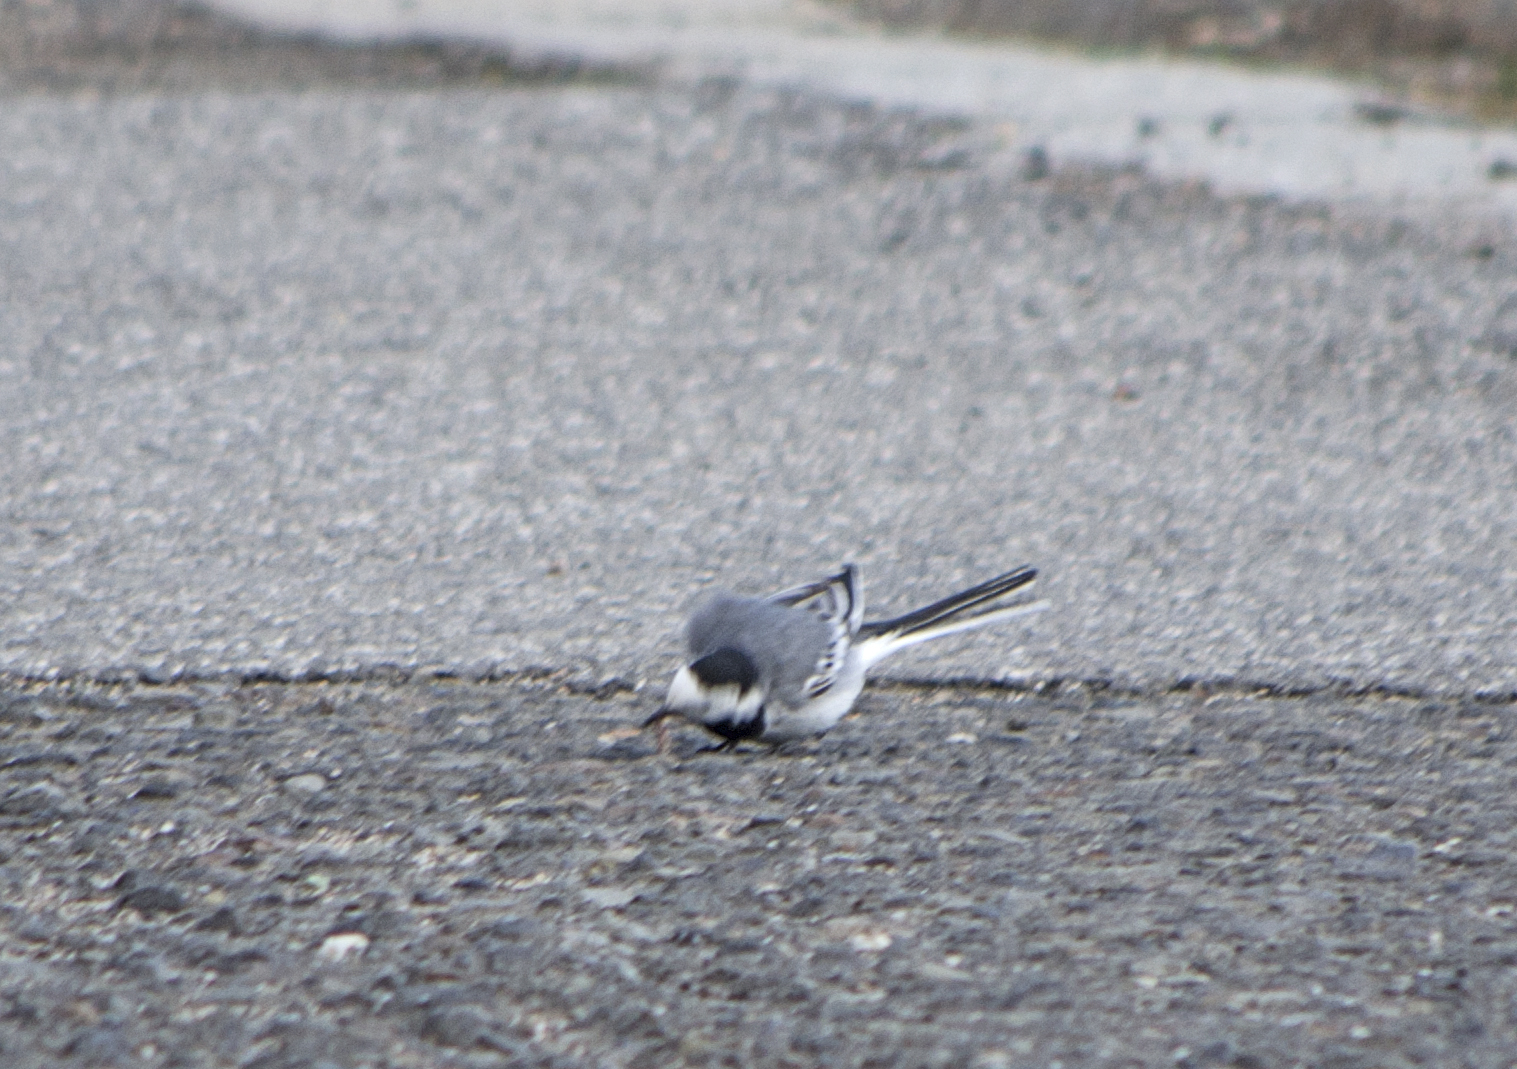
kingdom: Animalia
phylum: Chordata
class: Aves
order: Passeriformes
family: Motacillidae
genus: Motacilla
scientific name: Motacilla alba
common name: White wagtail
